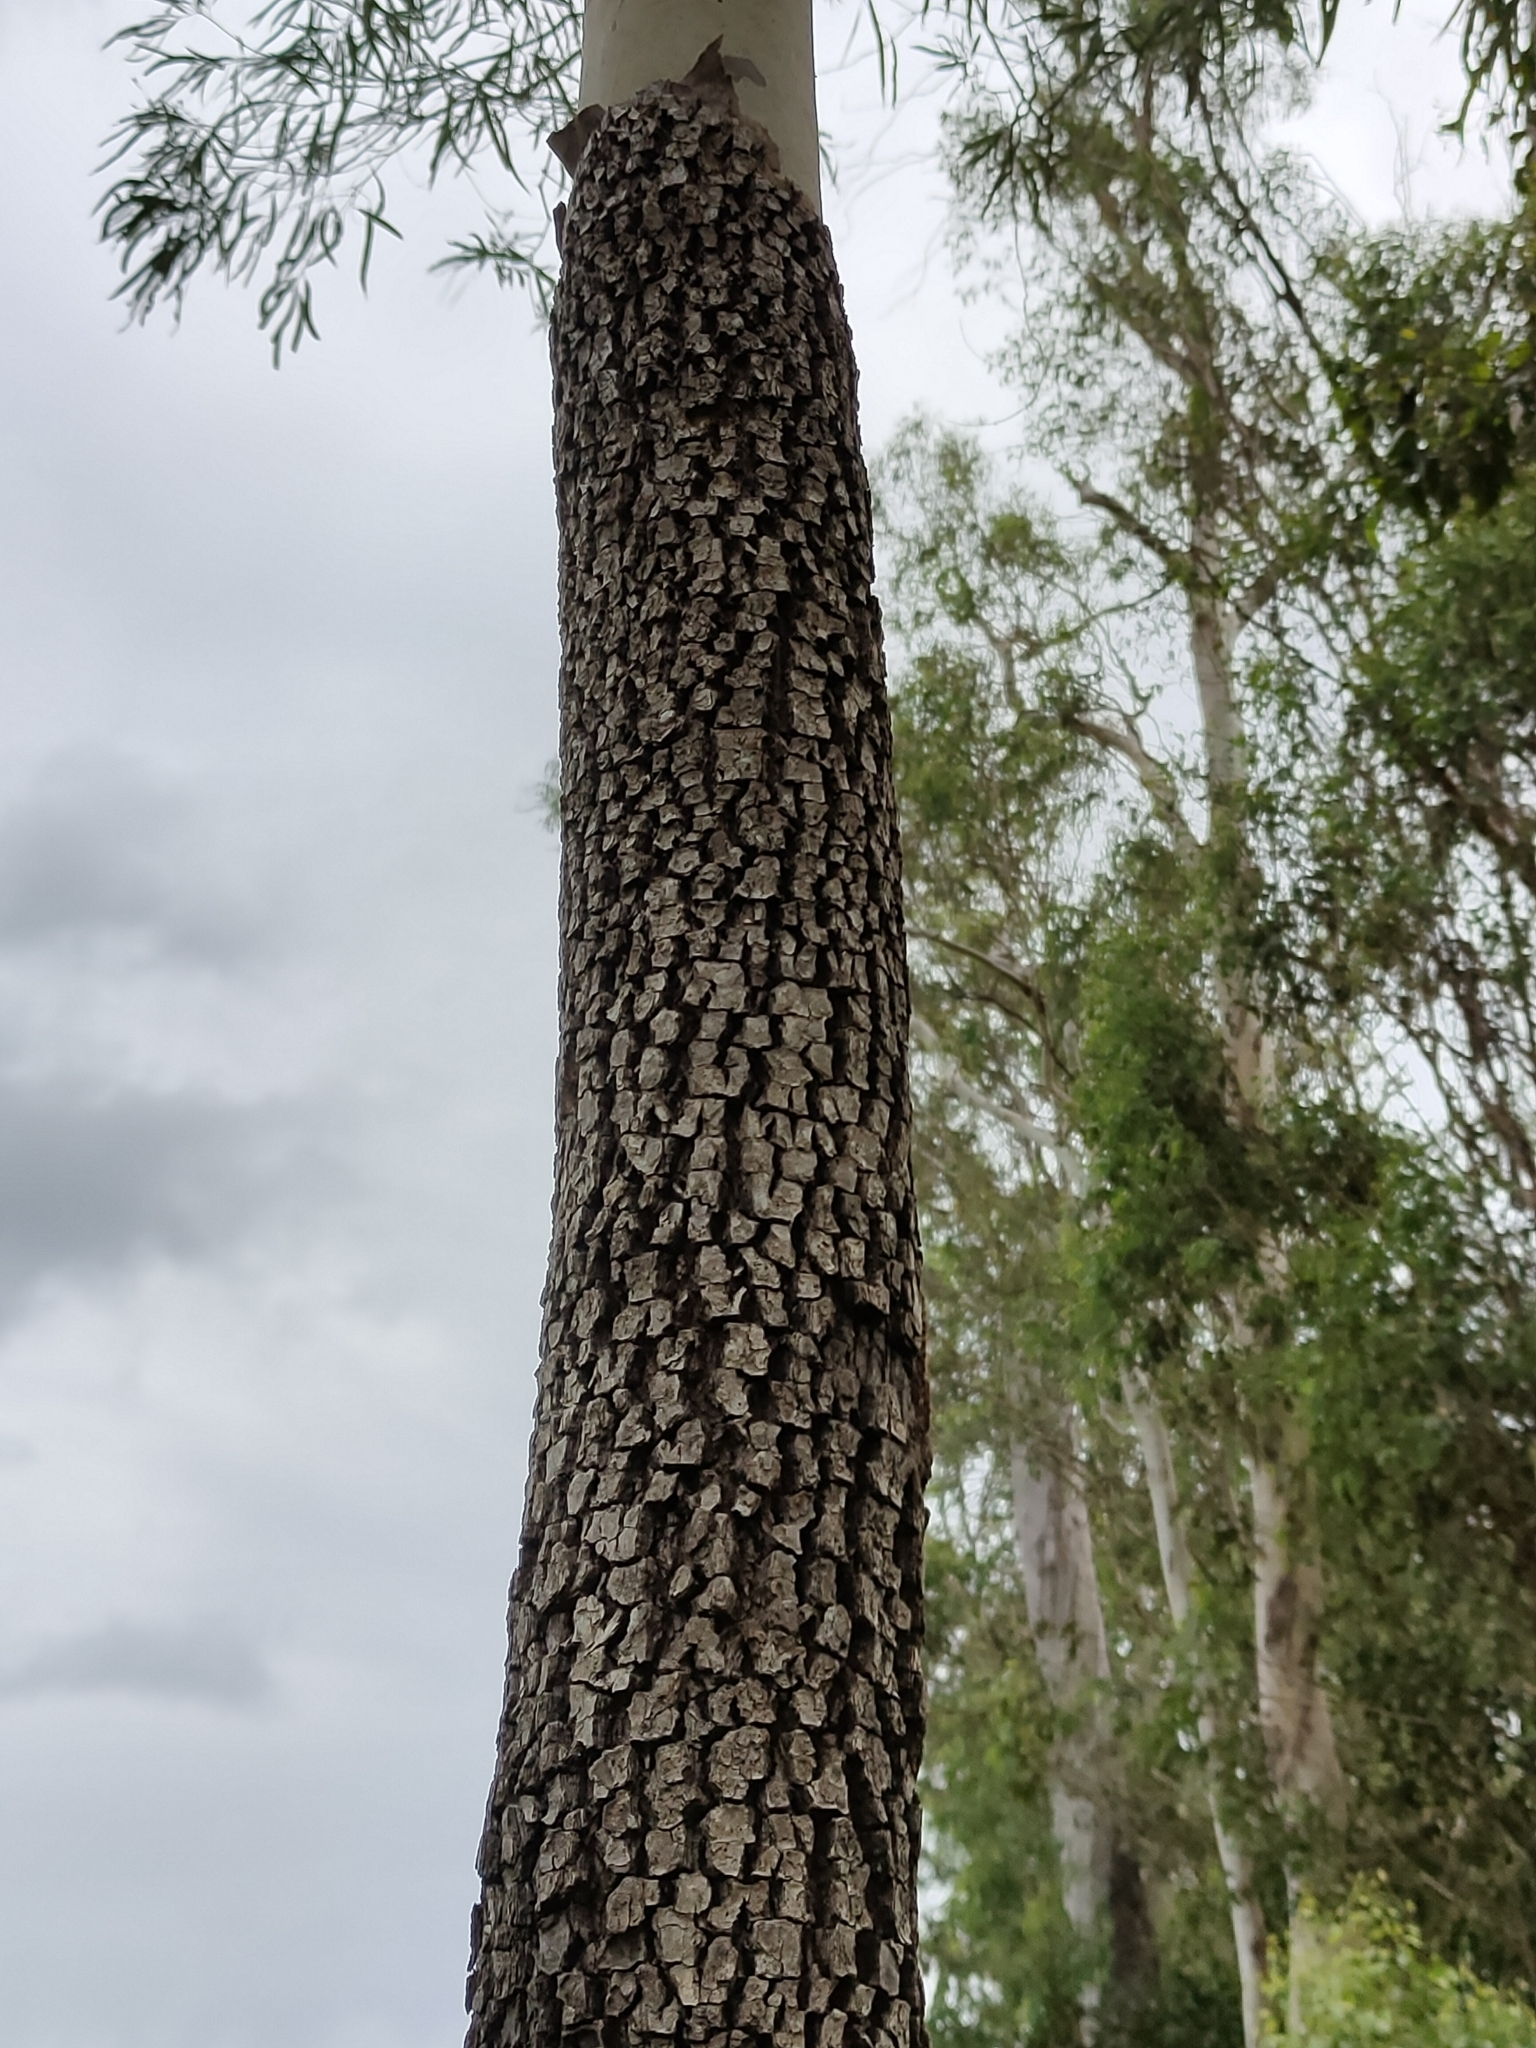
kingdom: Plantae
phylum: Tracheophyta
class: Magnoliopsida
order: Myrtales
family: Myrtaceae
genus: Corymbia
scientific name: Corymbia tessellaris
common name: Carbeen
